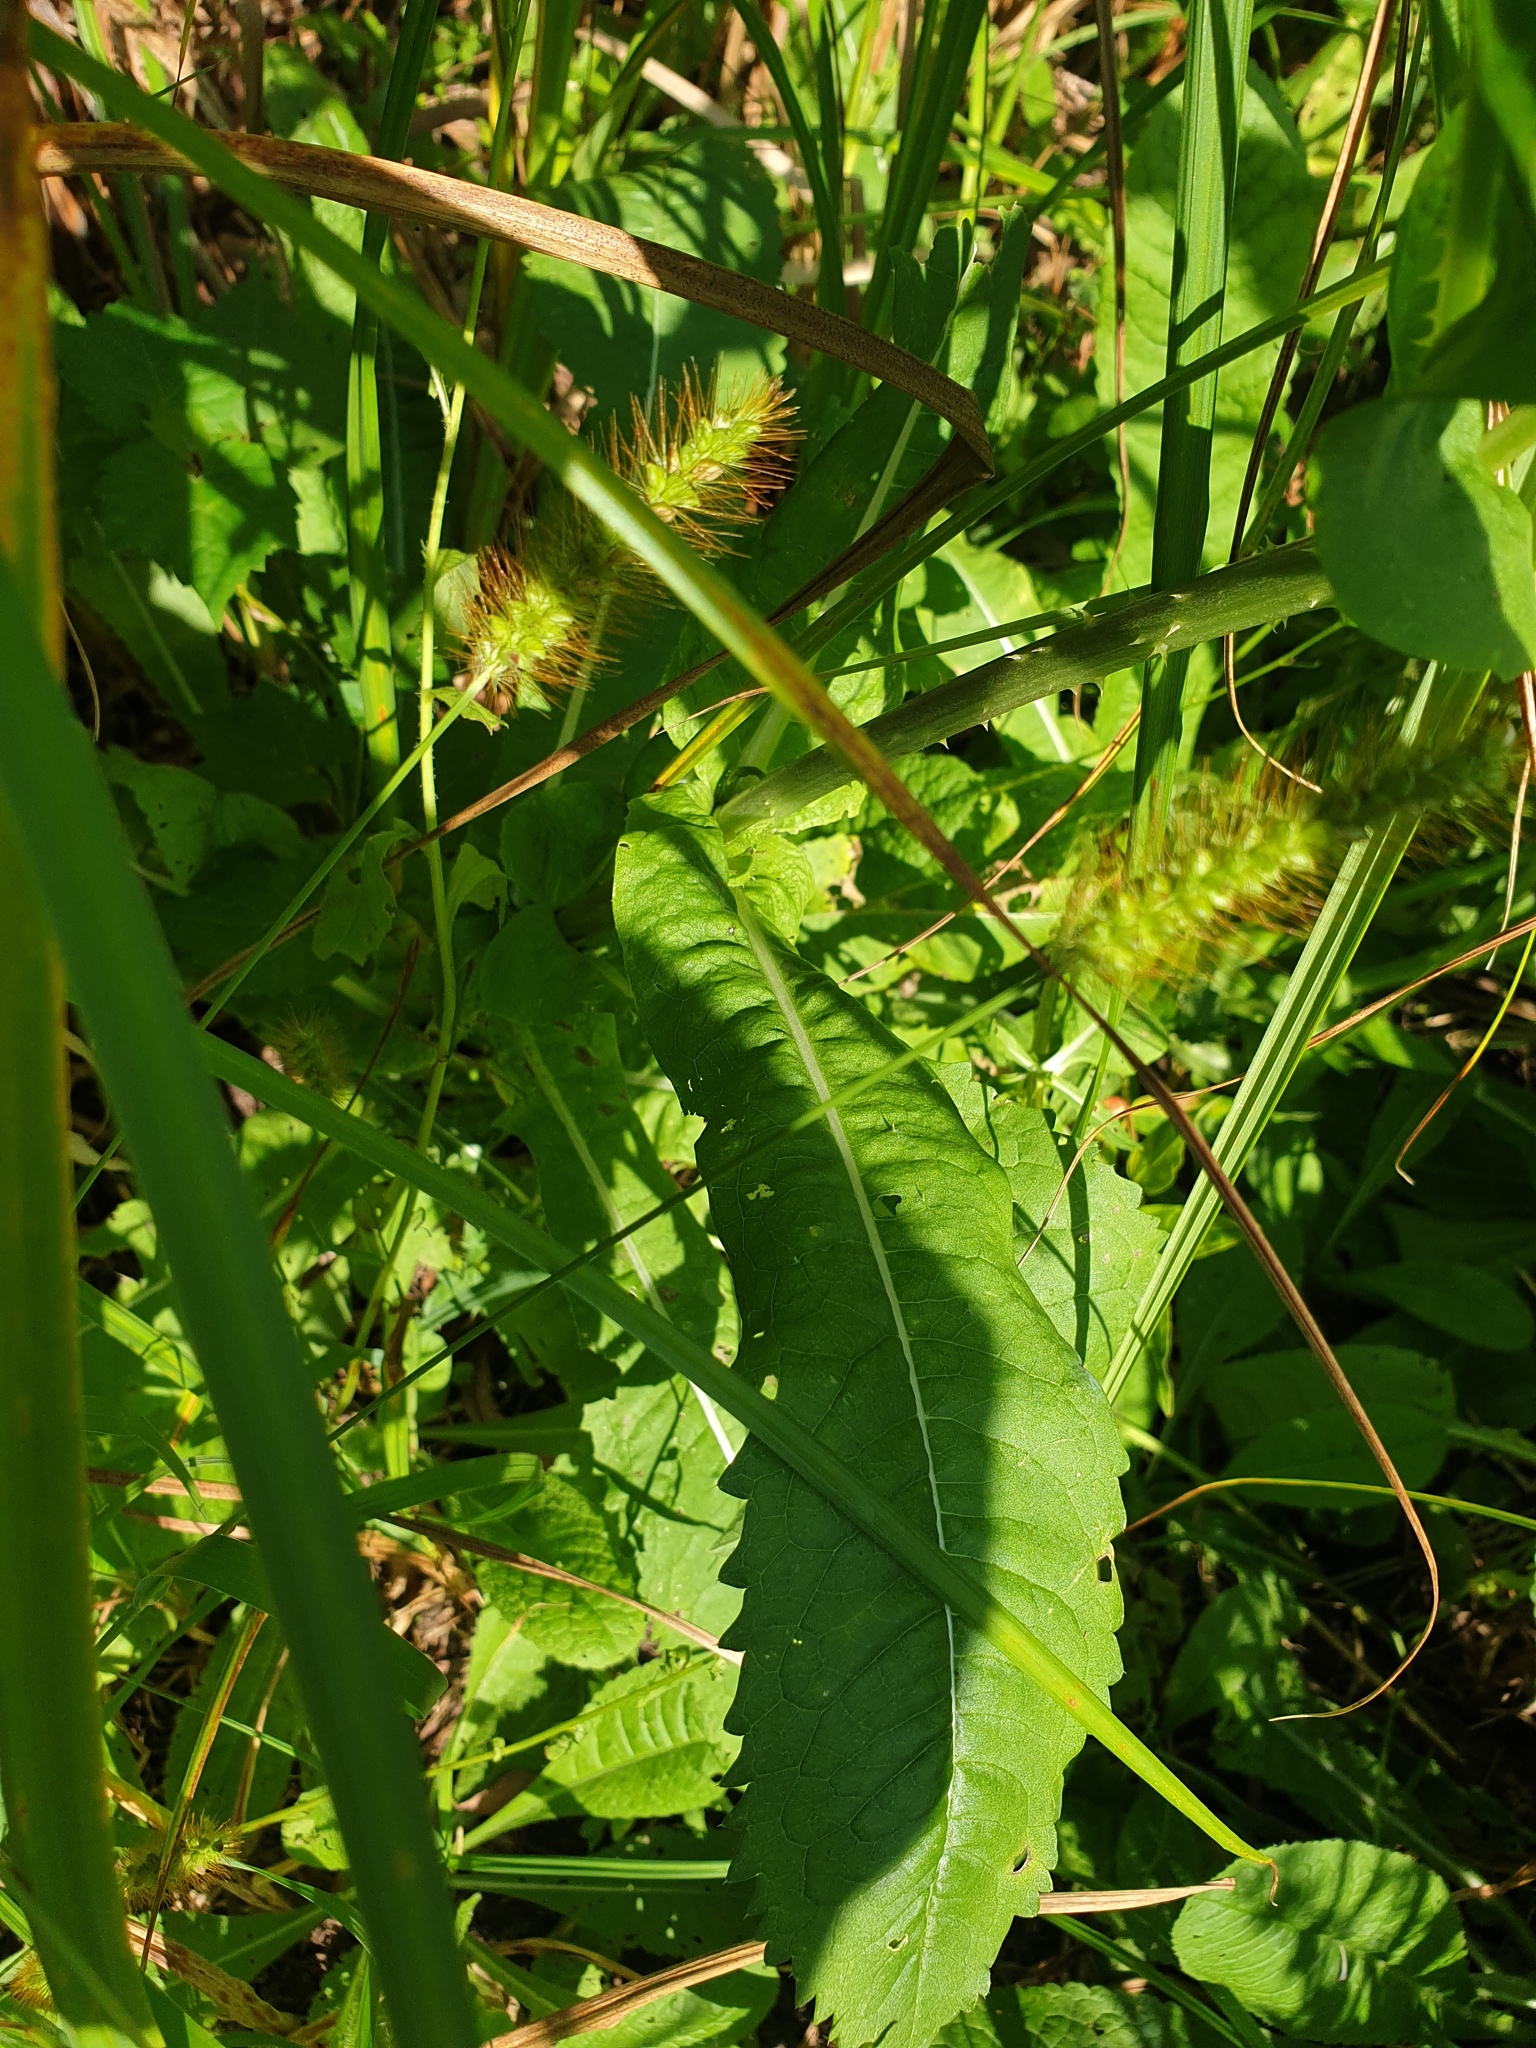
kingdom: Plantae
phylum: Tracheophyta
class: Magnoliopsida
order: Dipsacales
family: Caprifoliaceae
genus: Dipsacus
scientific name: Dipsacus fullonum
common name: Teasel
